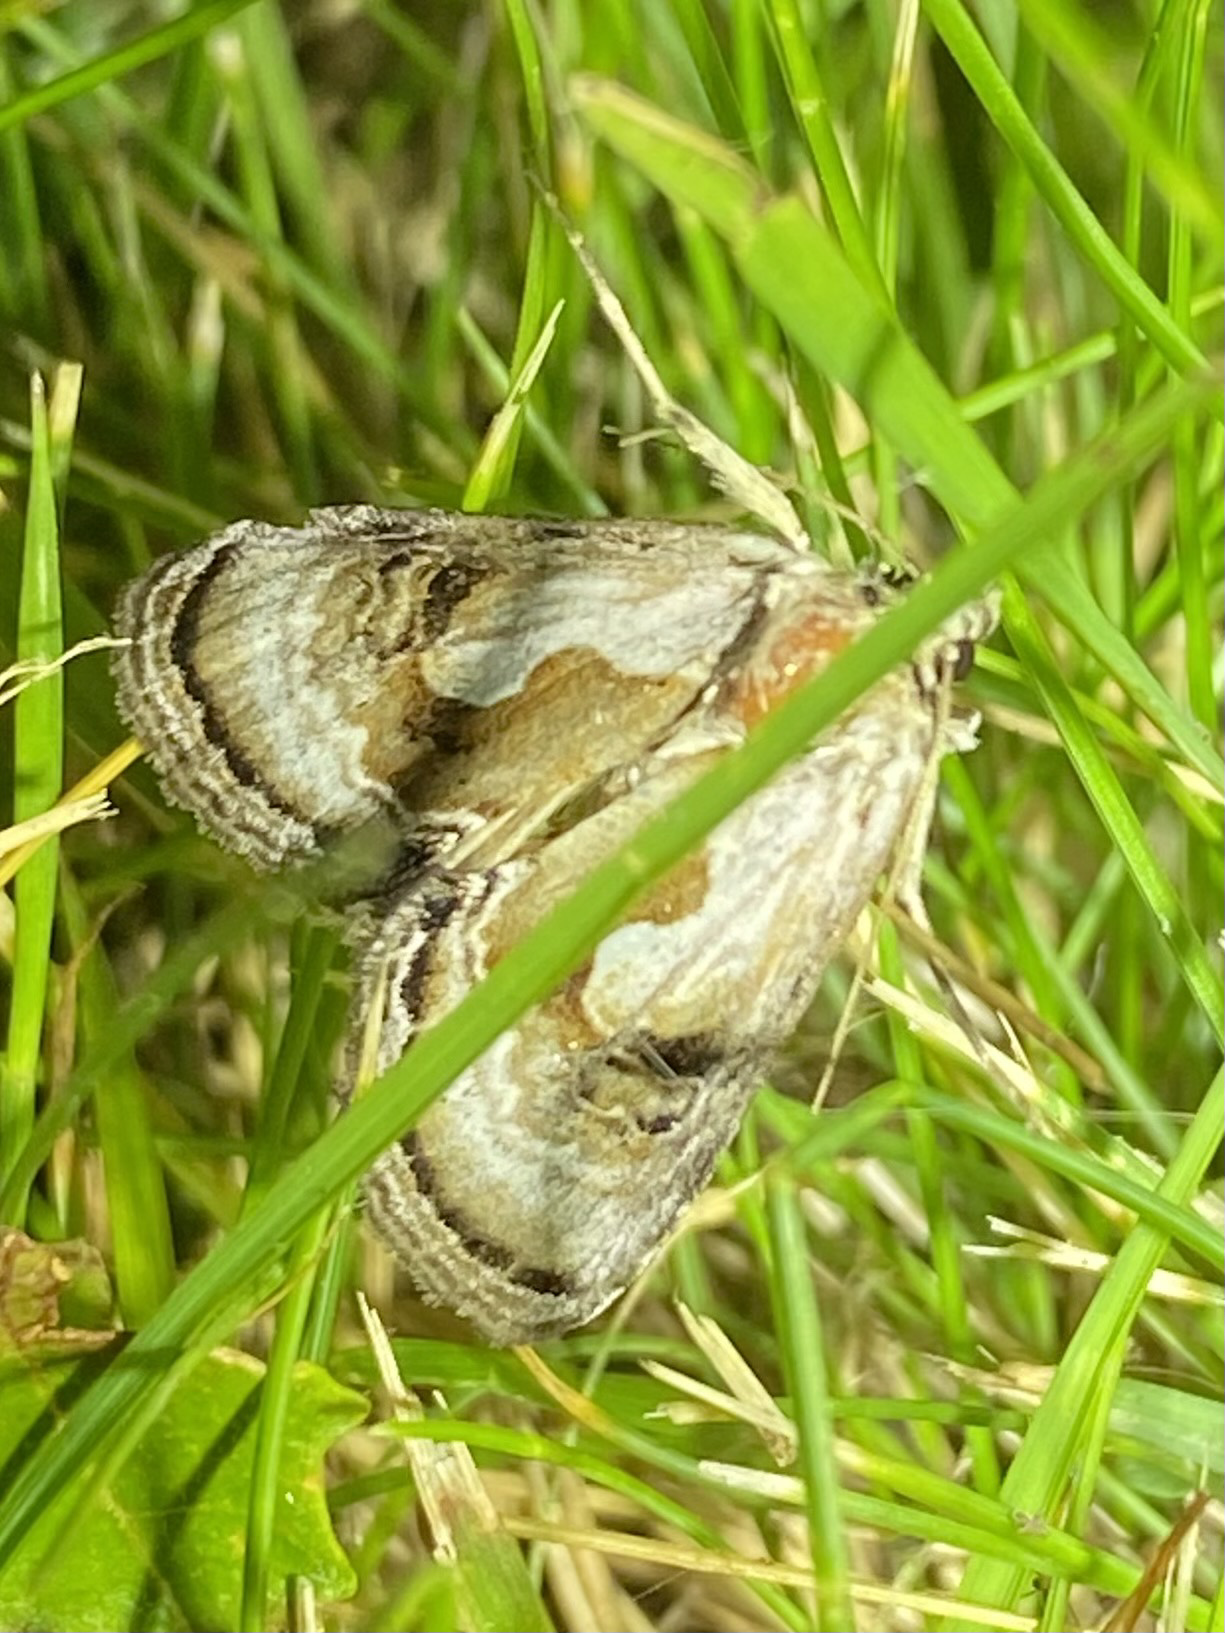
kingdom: Animalia
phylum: Arthropoda
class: Insecta
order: Lepidoptera
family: Noctuidae
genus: Chrysanympha
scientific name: Chrysanympha formosa
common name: Formosa looper moth
